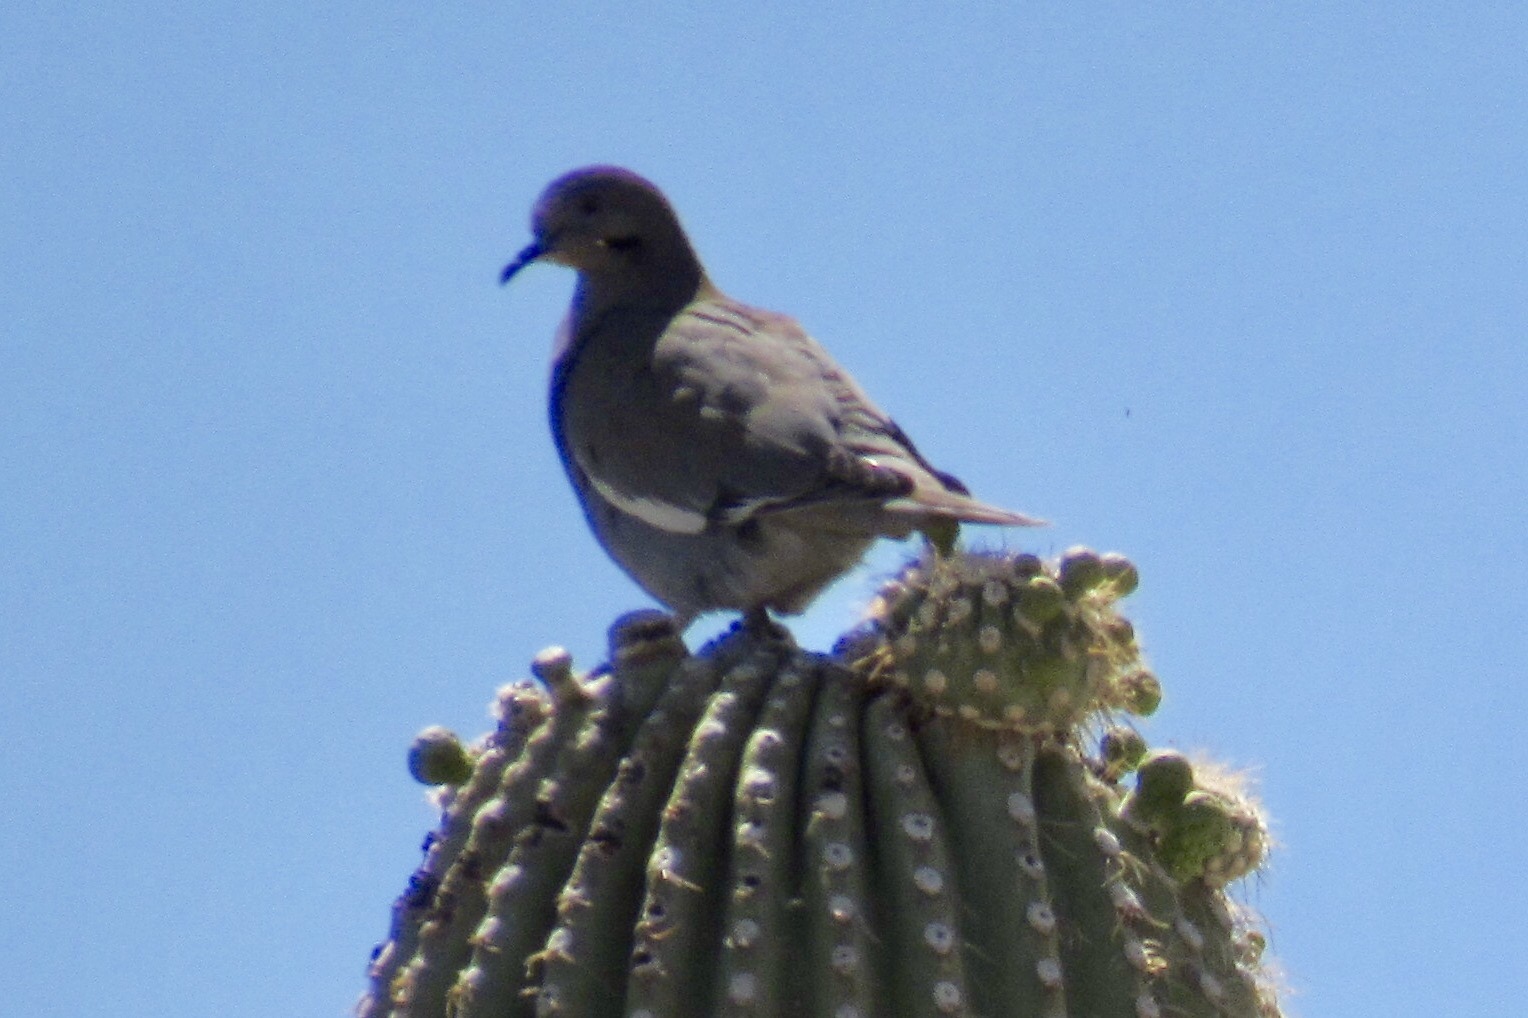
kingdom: Animalia
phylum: Chordata
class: Aves
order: Columbiformes
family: Columbidae
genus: Zenaida
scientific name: Zenaida asiatica
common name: White-winged dove
